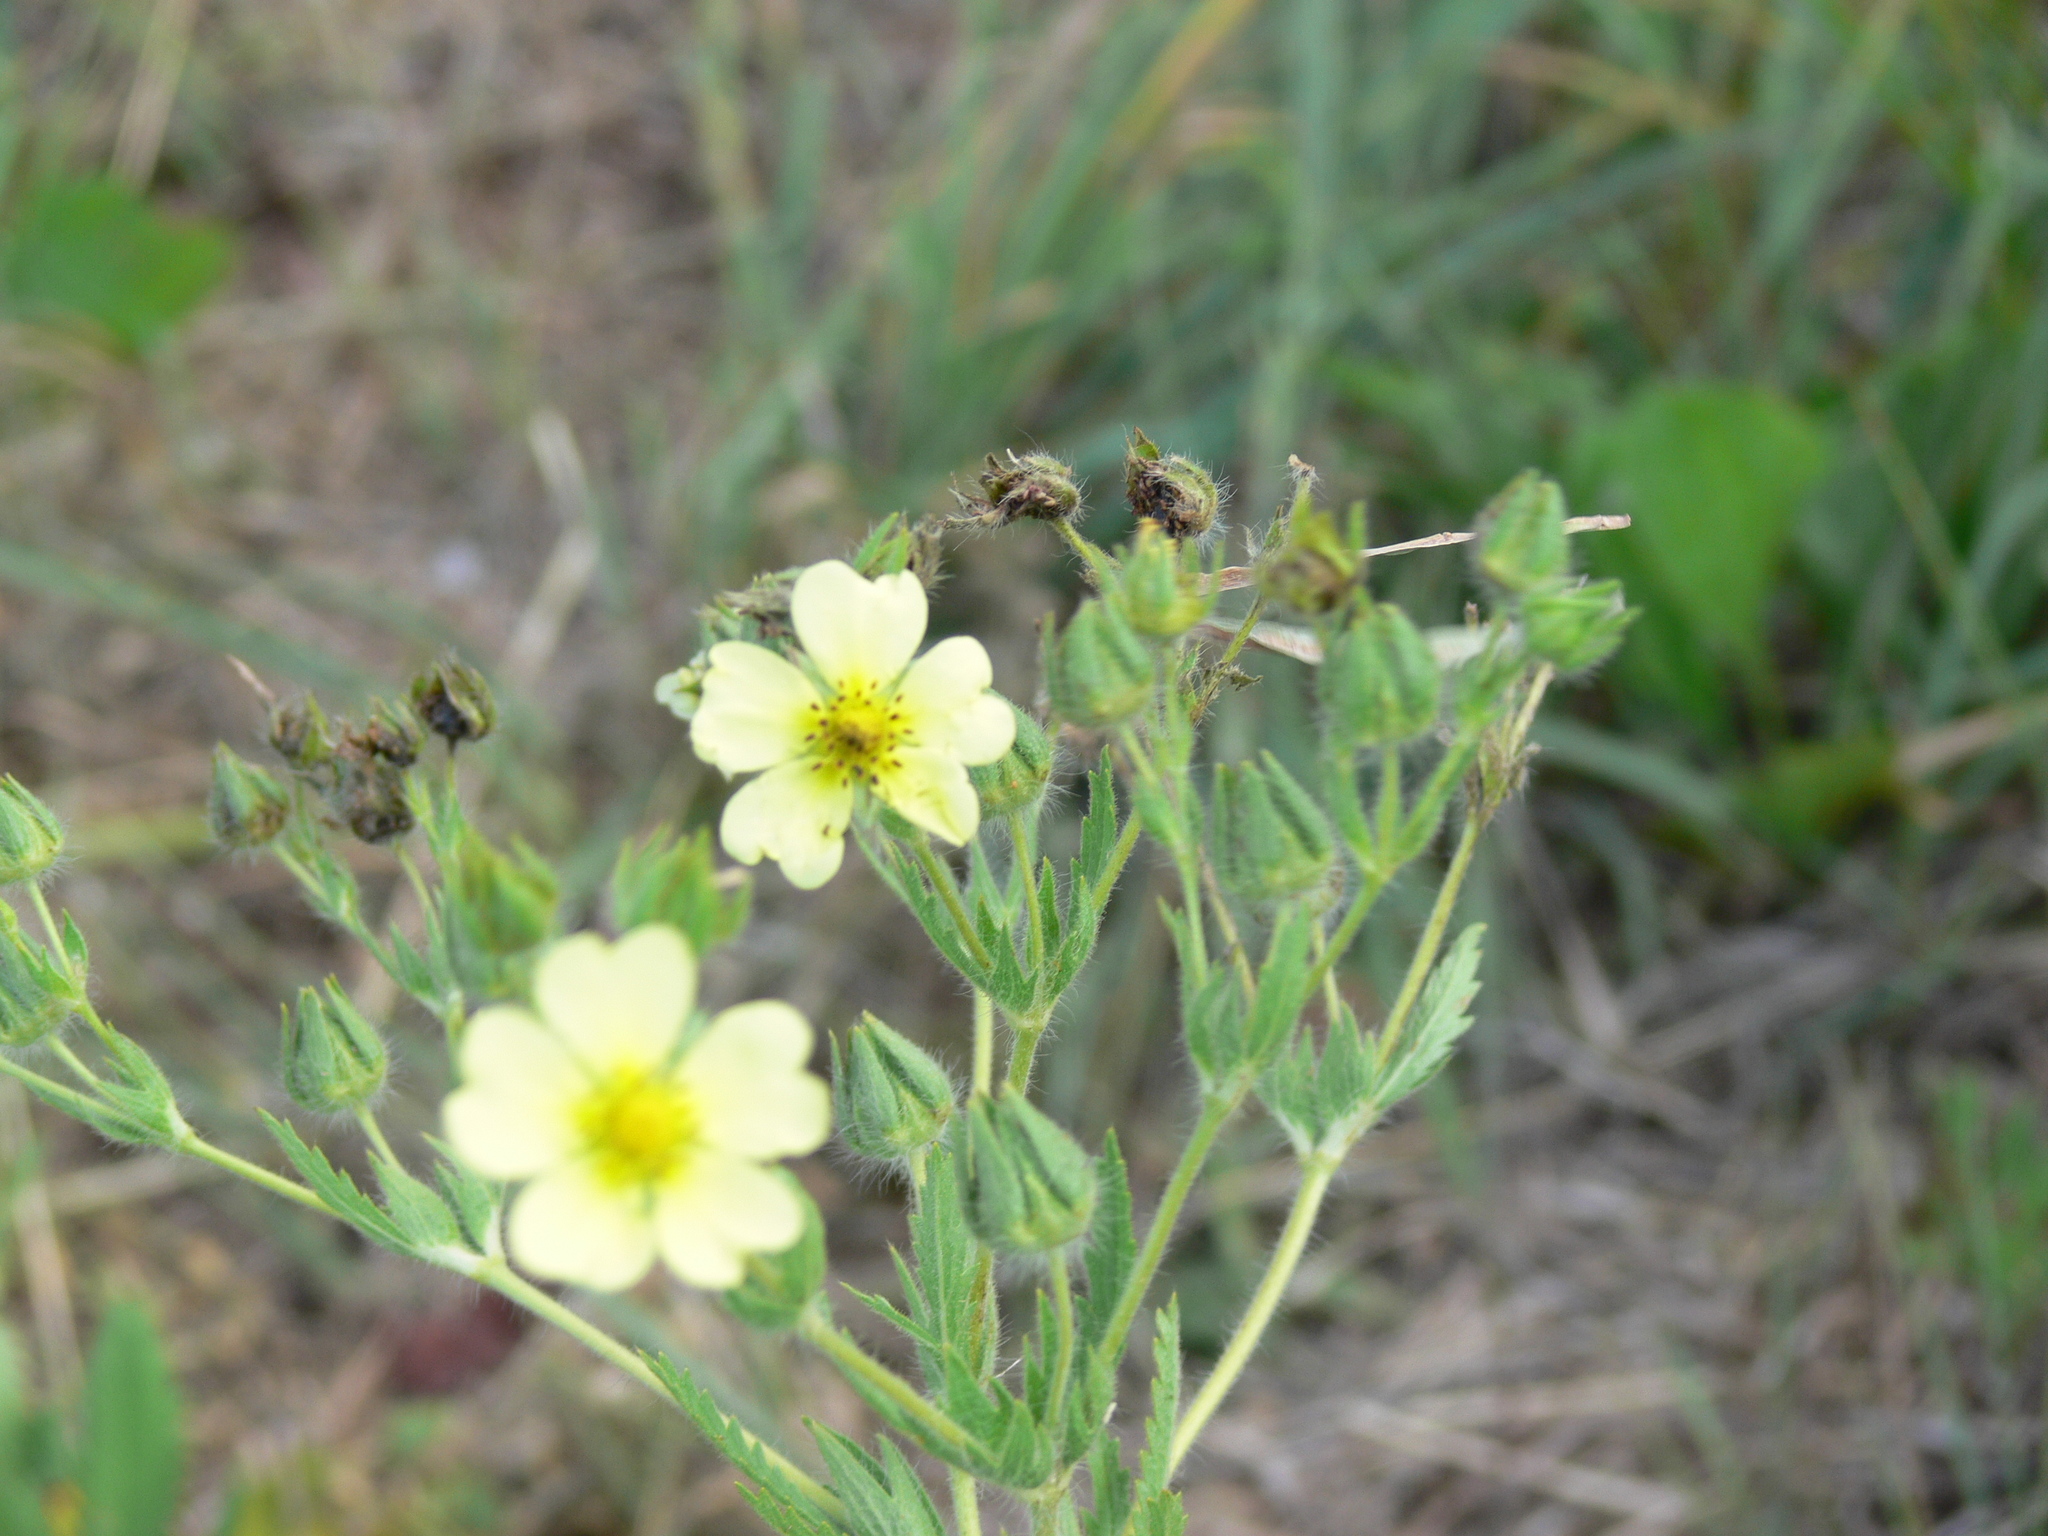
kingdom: Plantae
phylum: Tracheophyta
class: Magnoliopsida
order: Rosales
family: Rosaceae
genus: Potentilla
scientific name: Potentilla recta
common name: Sulphur cinquefoil
